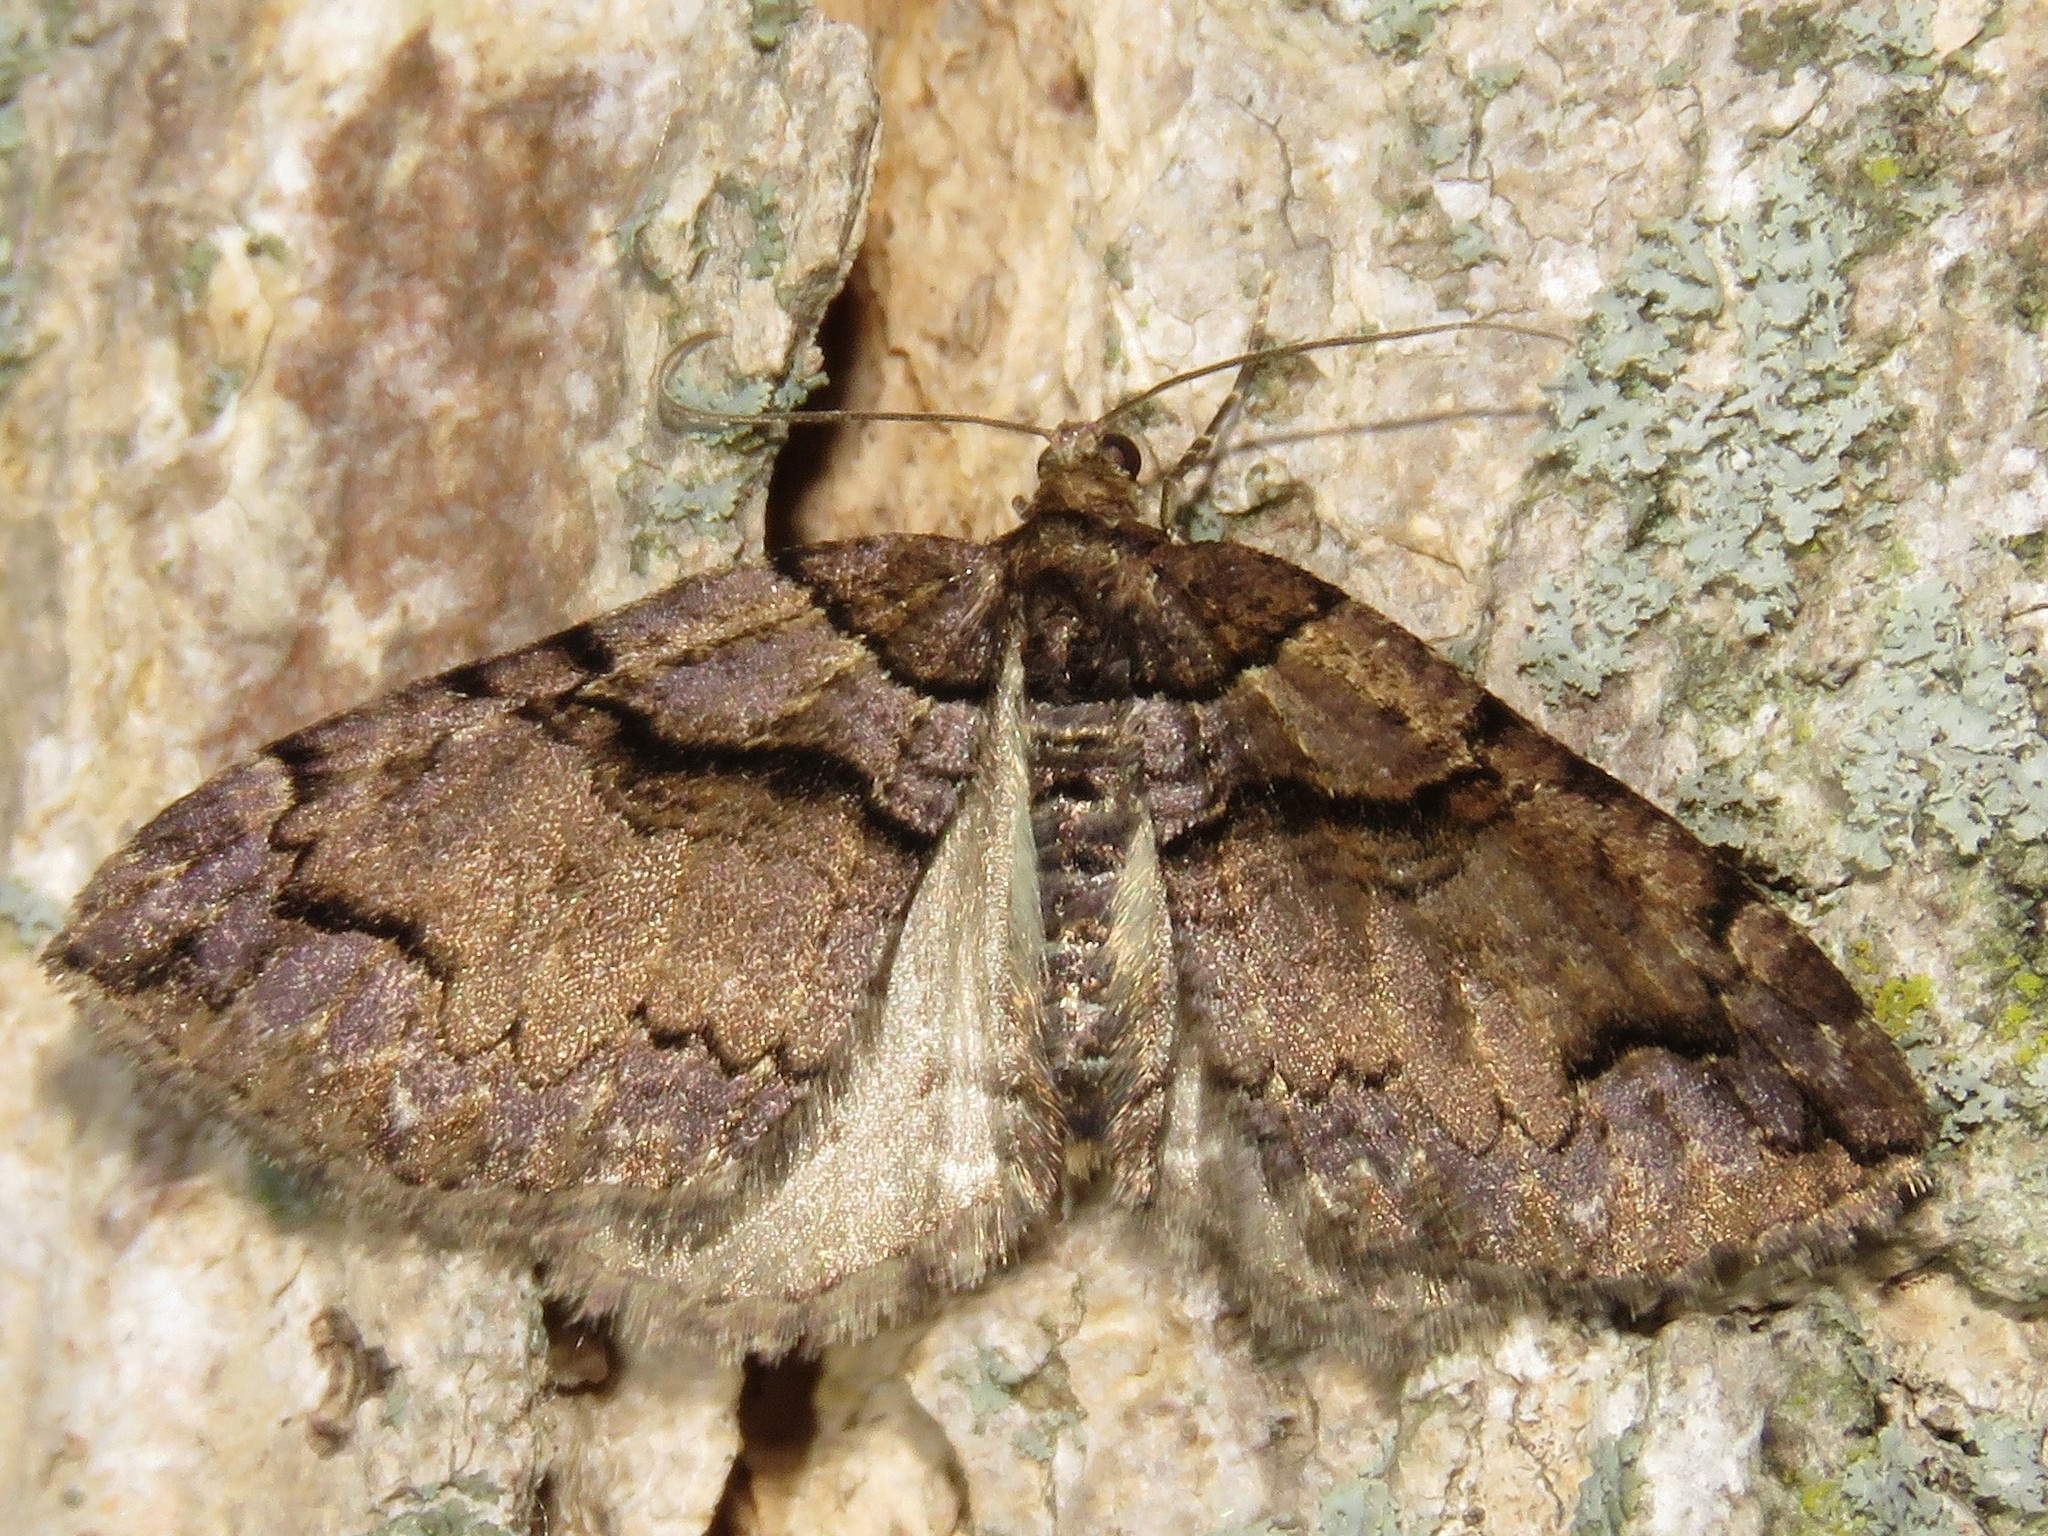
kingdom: Animalia
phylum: Arthropoda
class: Insecta
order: Lepidoptera
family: Geometridae
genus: Anticlea
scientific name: Anticlea vasiliata
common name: Variable carpet
